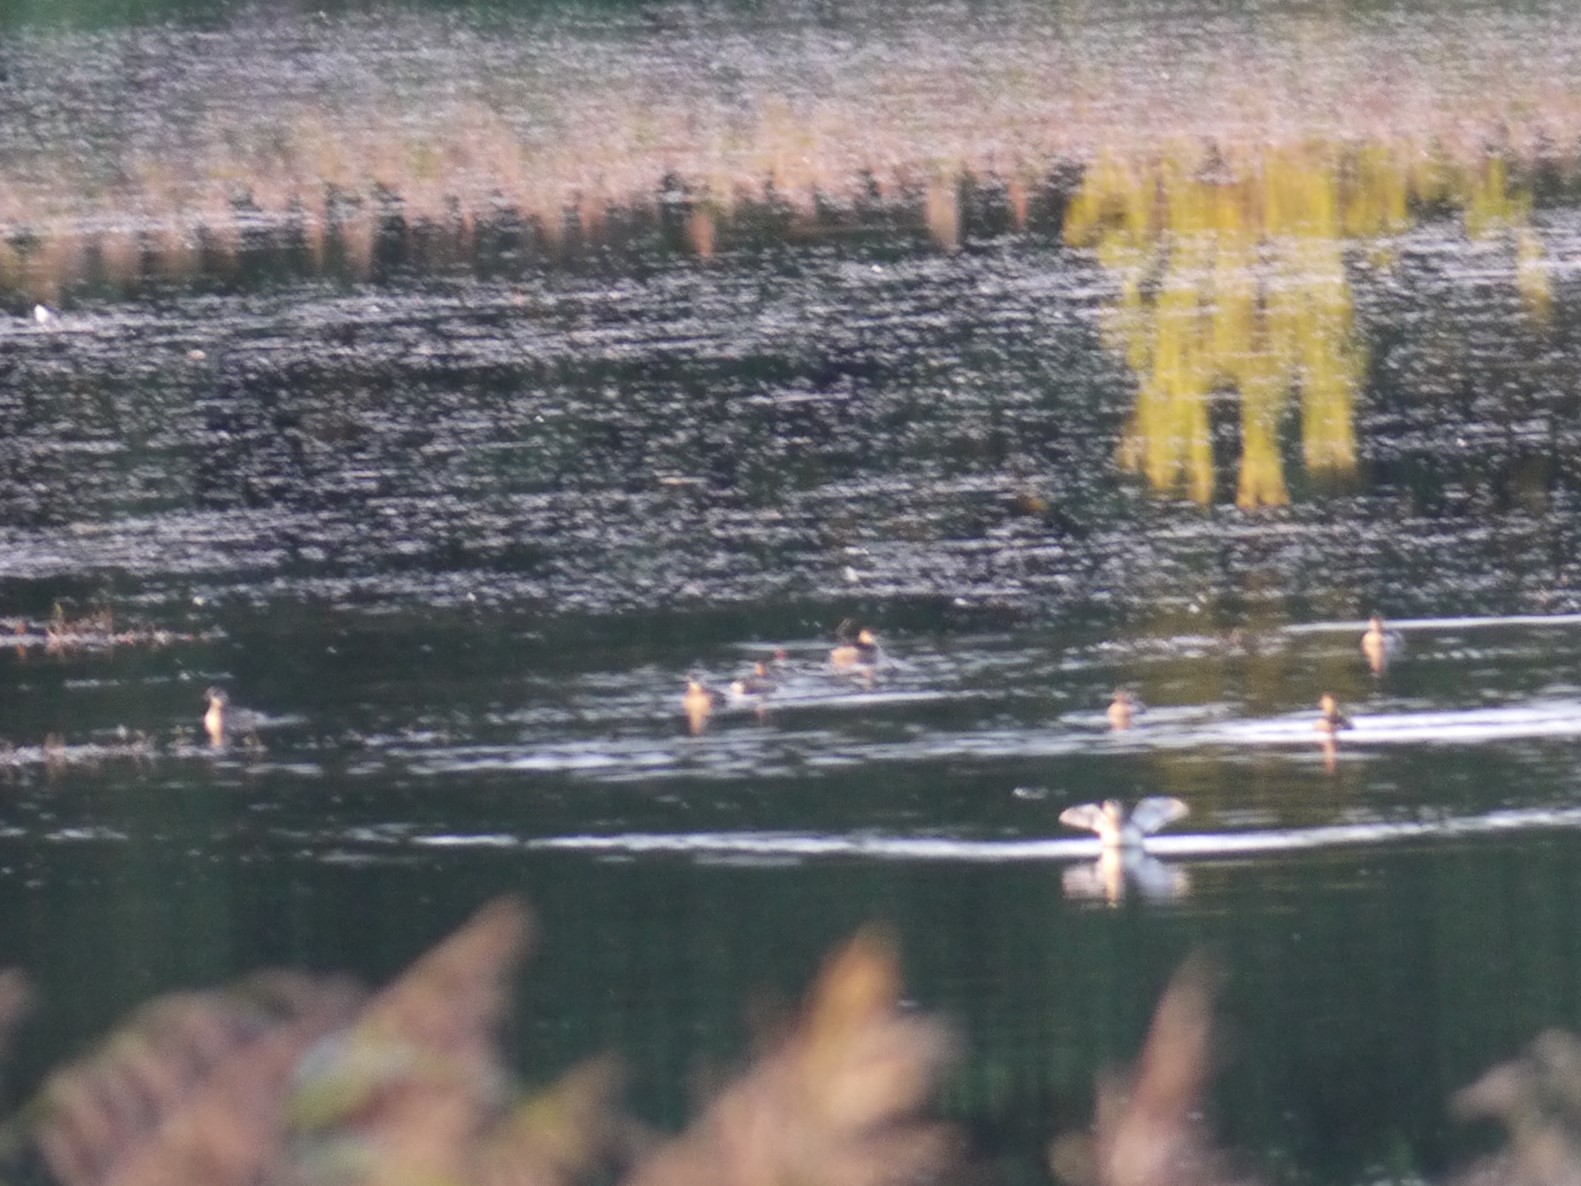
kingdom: Animalia
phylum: Chordata
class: Aves
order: Podicipediformes
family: Podicipedidae
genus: Tachybaptus
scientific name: Tachybaptus ruficollis
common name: Little grebe
